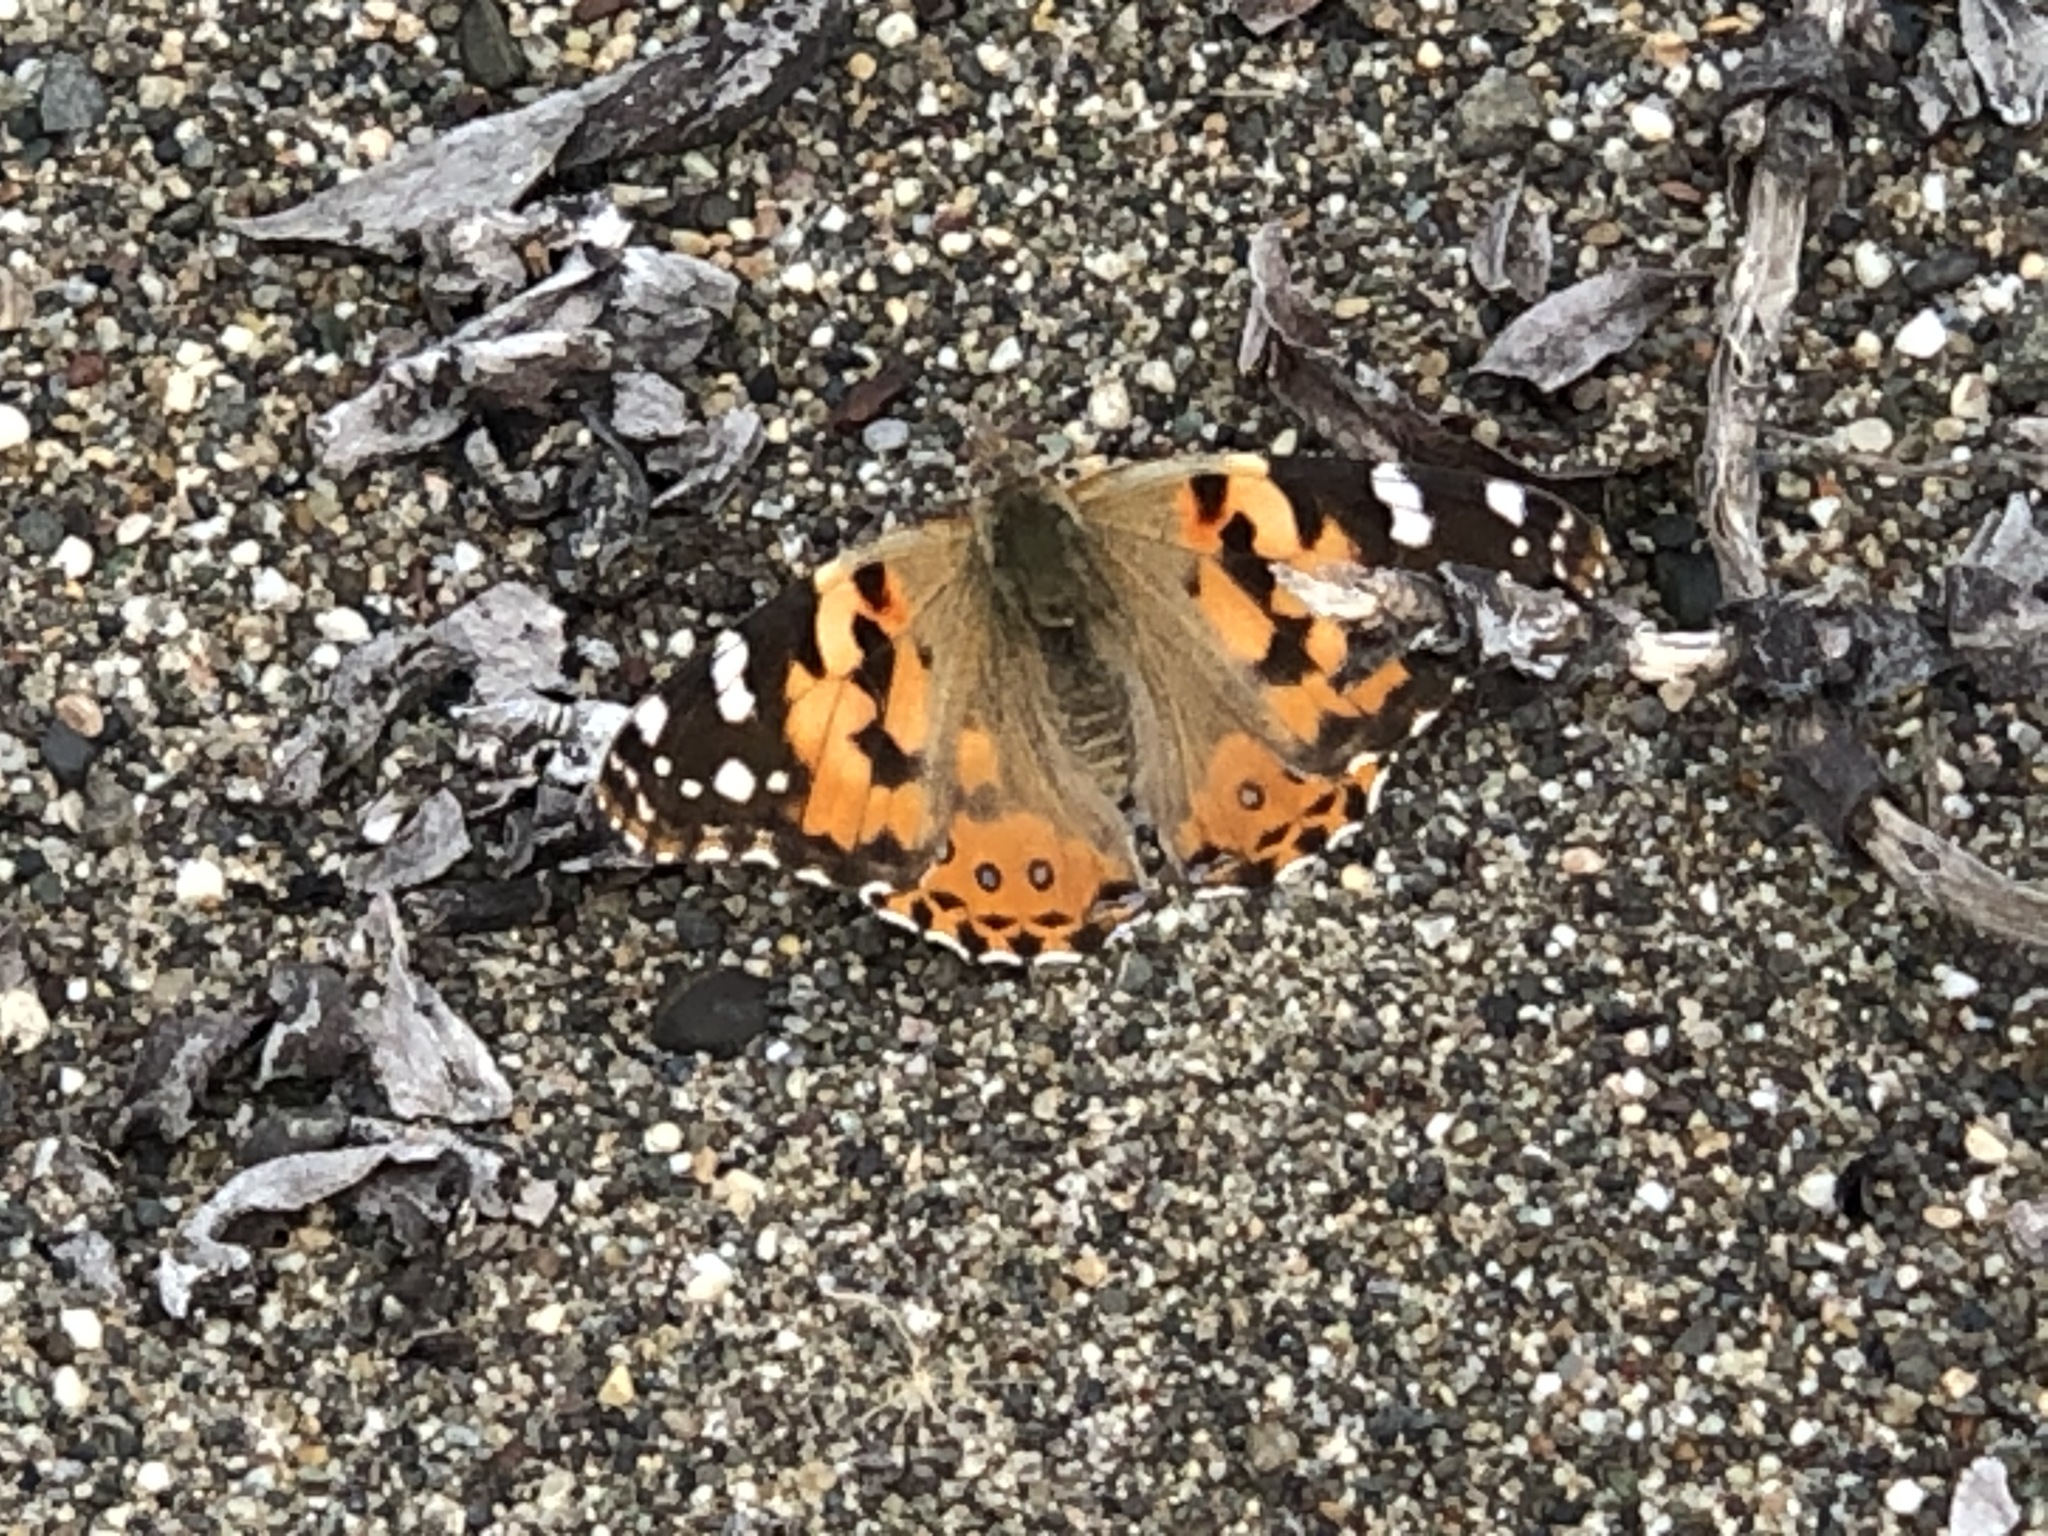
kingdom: Animalia
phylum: Arthropoda
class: Insecta
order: Lepidoptera
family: Nymphalidae
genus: Vanessa
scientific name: Vanessa cardui
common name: Painted lady
